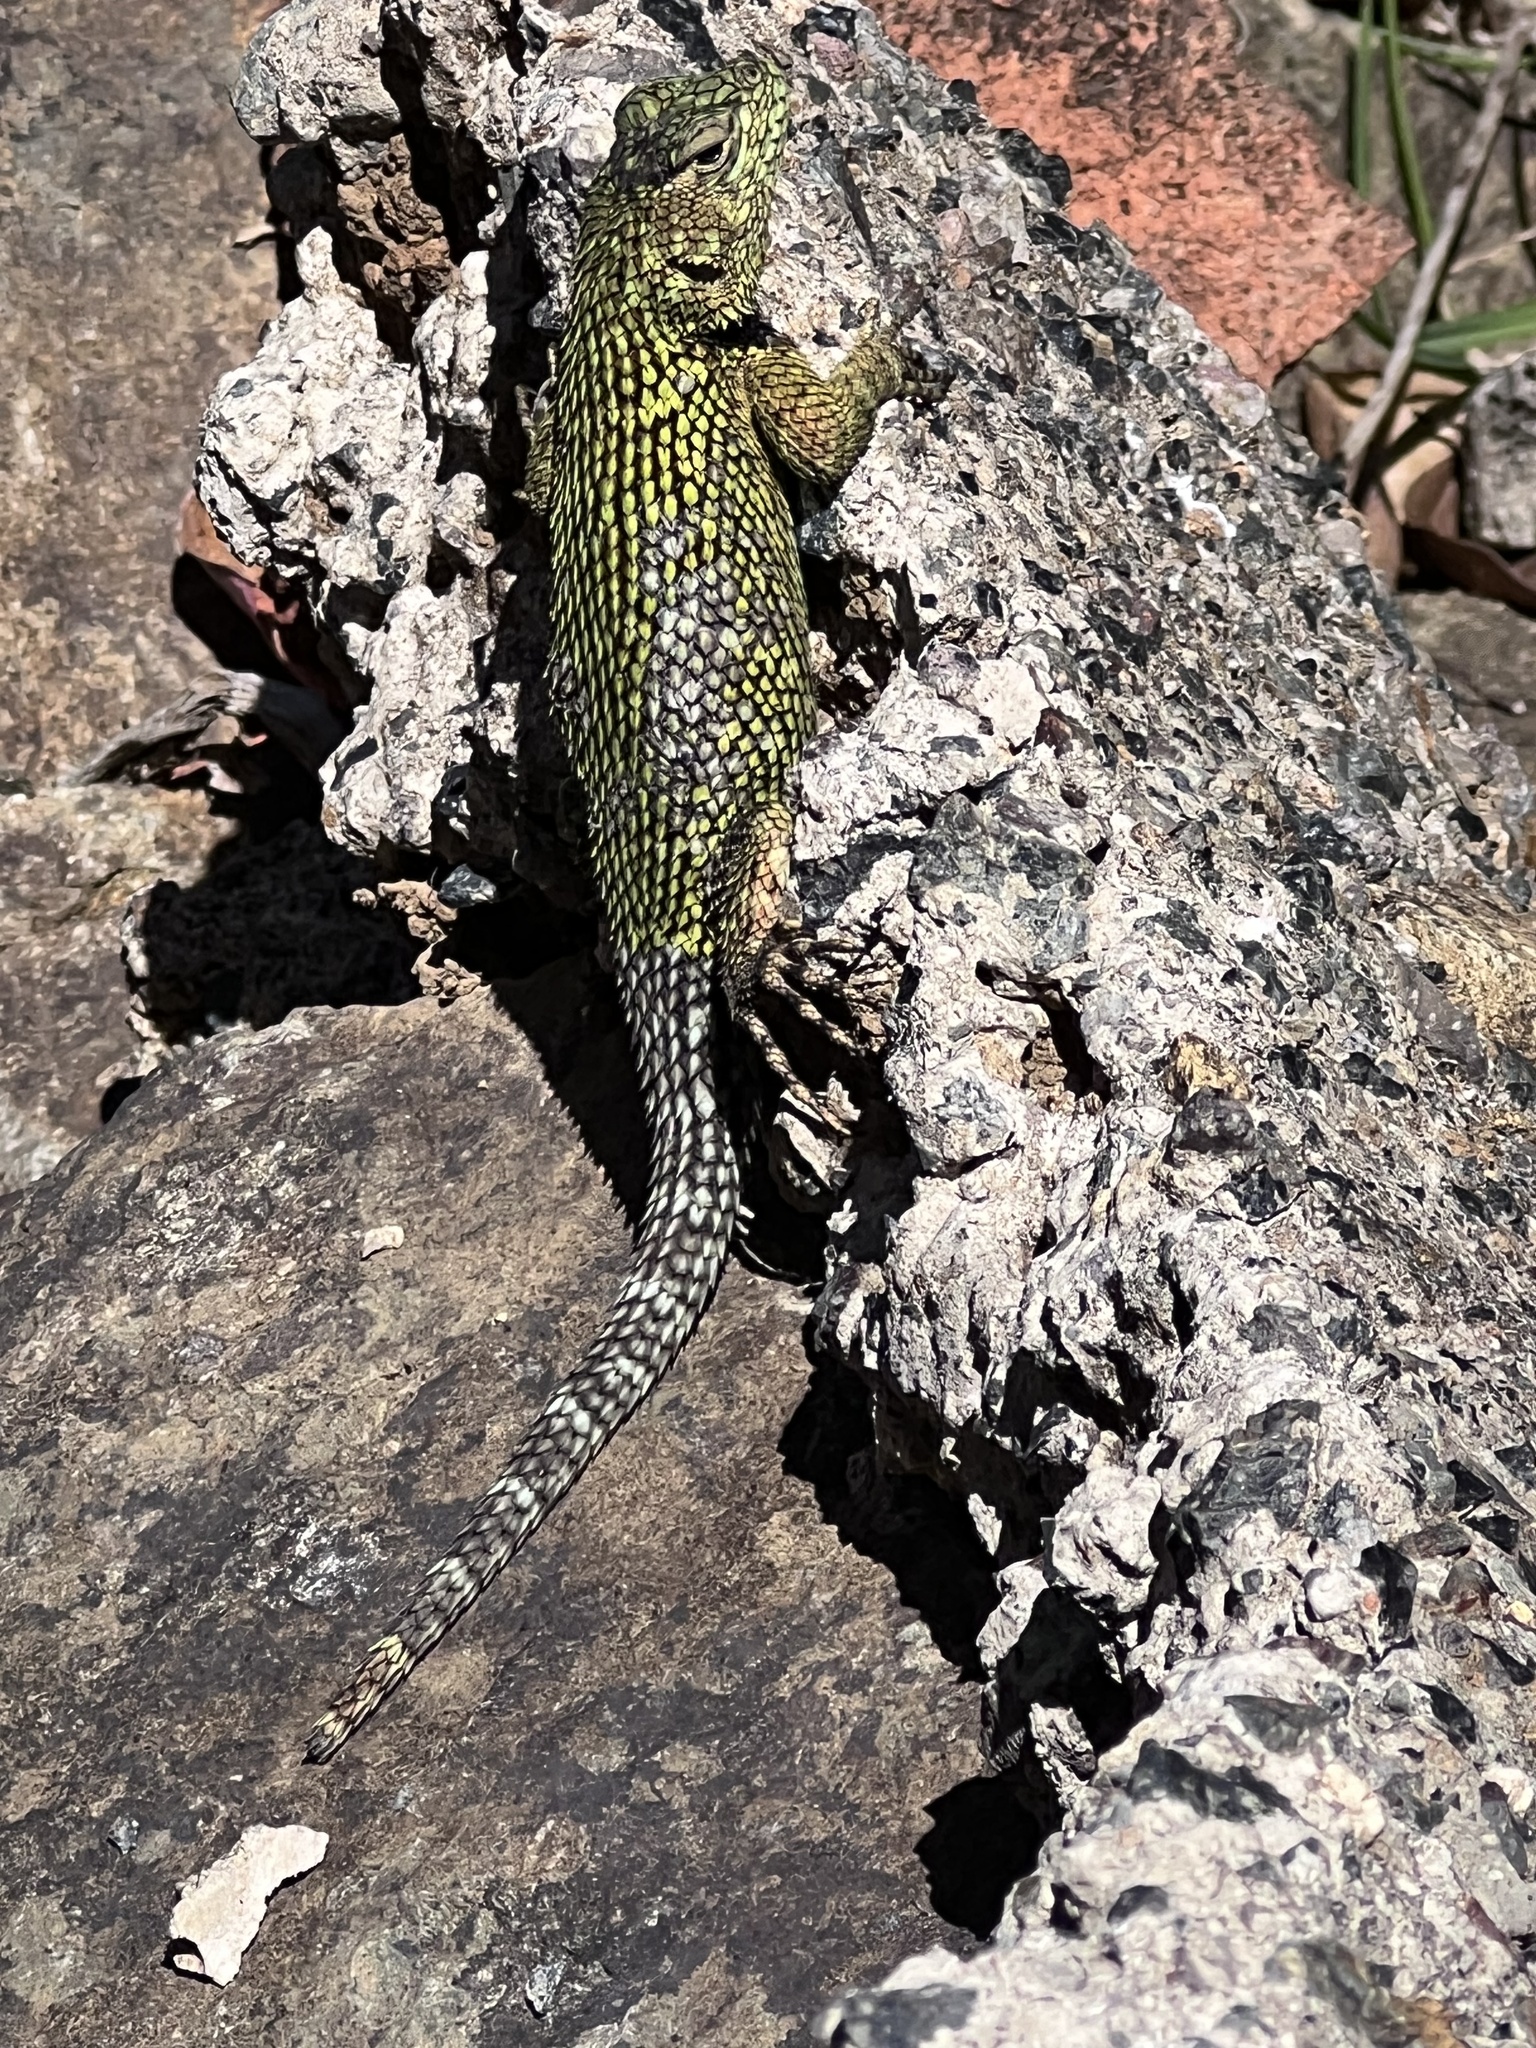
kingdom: Animalia
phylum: Chordata
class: Squamata
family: Phrynosomatidae
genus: Sceloporus
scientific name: Sceloporus malachiticus
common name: Green spiny lizard
